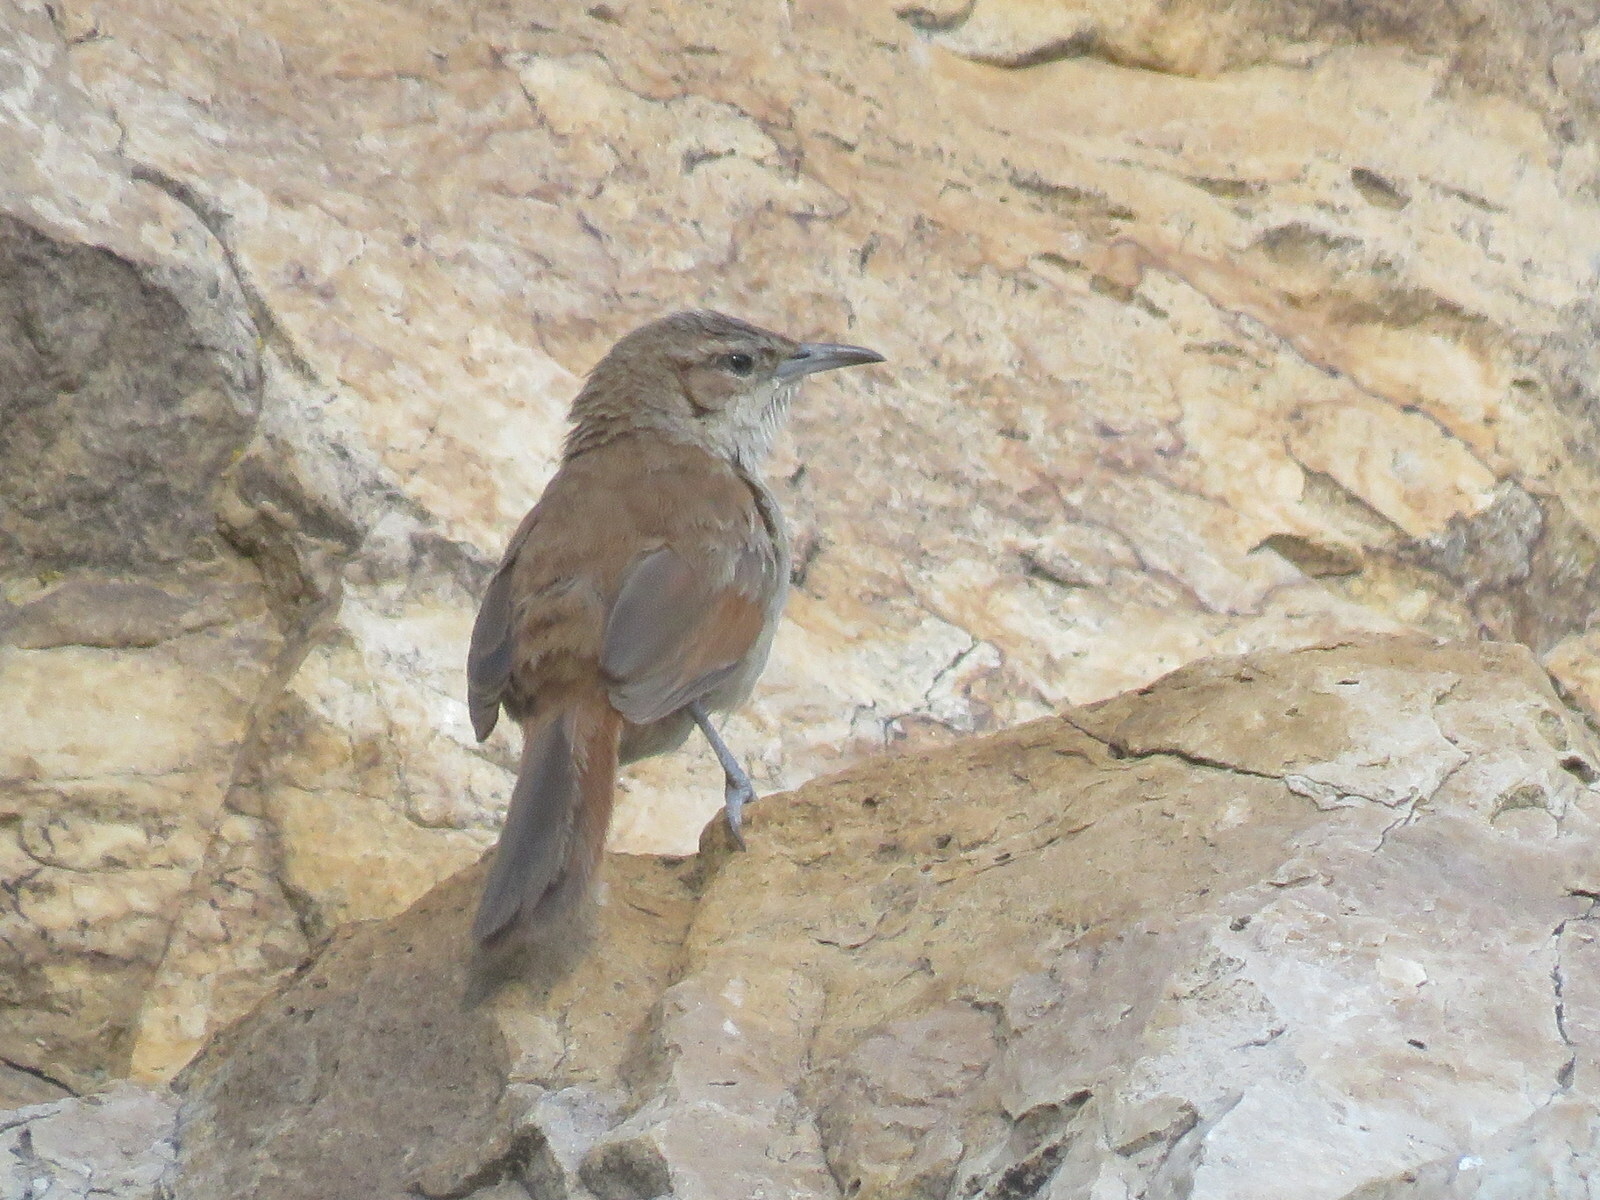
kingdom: Animalia
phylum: Chordata
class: Aves
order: Passeriformes
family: Furnariidae
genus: Phacellodomus
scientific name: Phacellodomus striaticeps
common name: Streak-fronted thornbird
